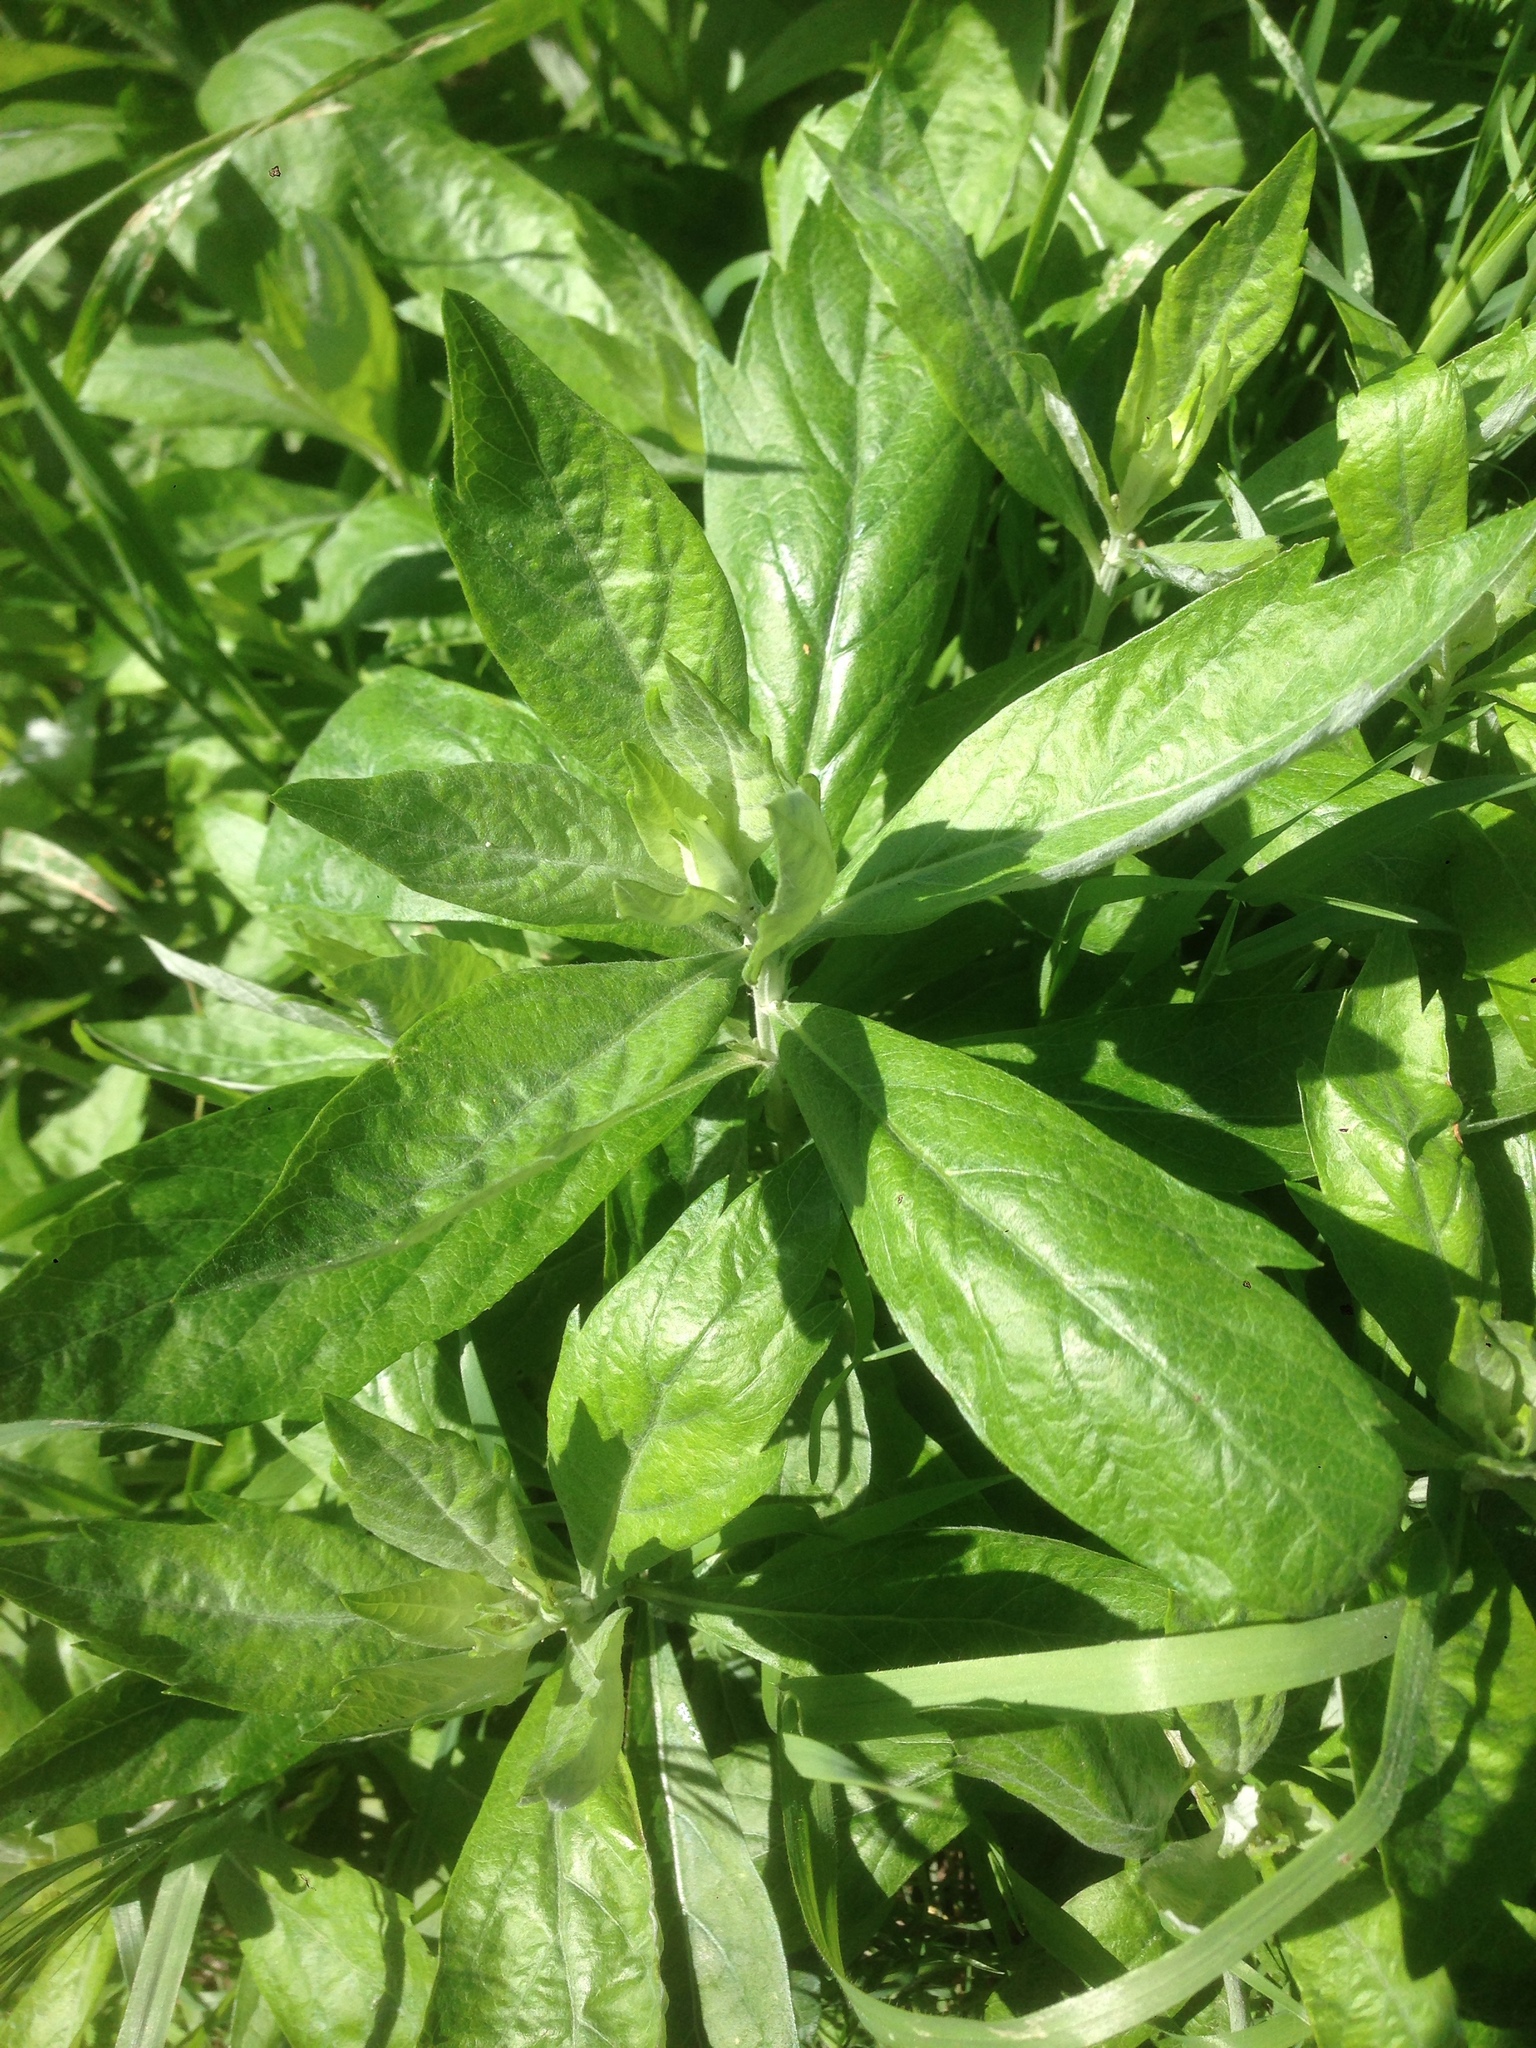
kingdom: Plantae
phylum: Tracheophyta
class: Magnoliopsida
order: Asterales
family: Asteraceae
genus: Artemisia
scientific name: Artemisia douglasiana
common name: Northwest mugwort
